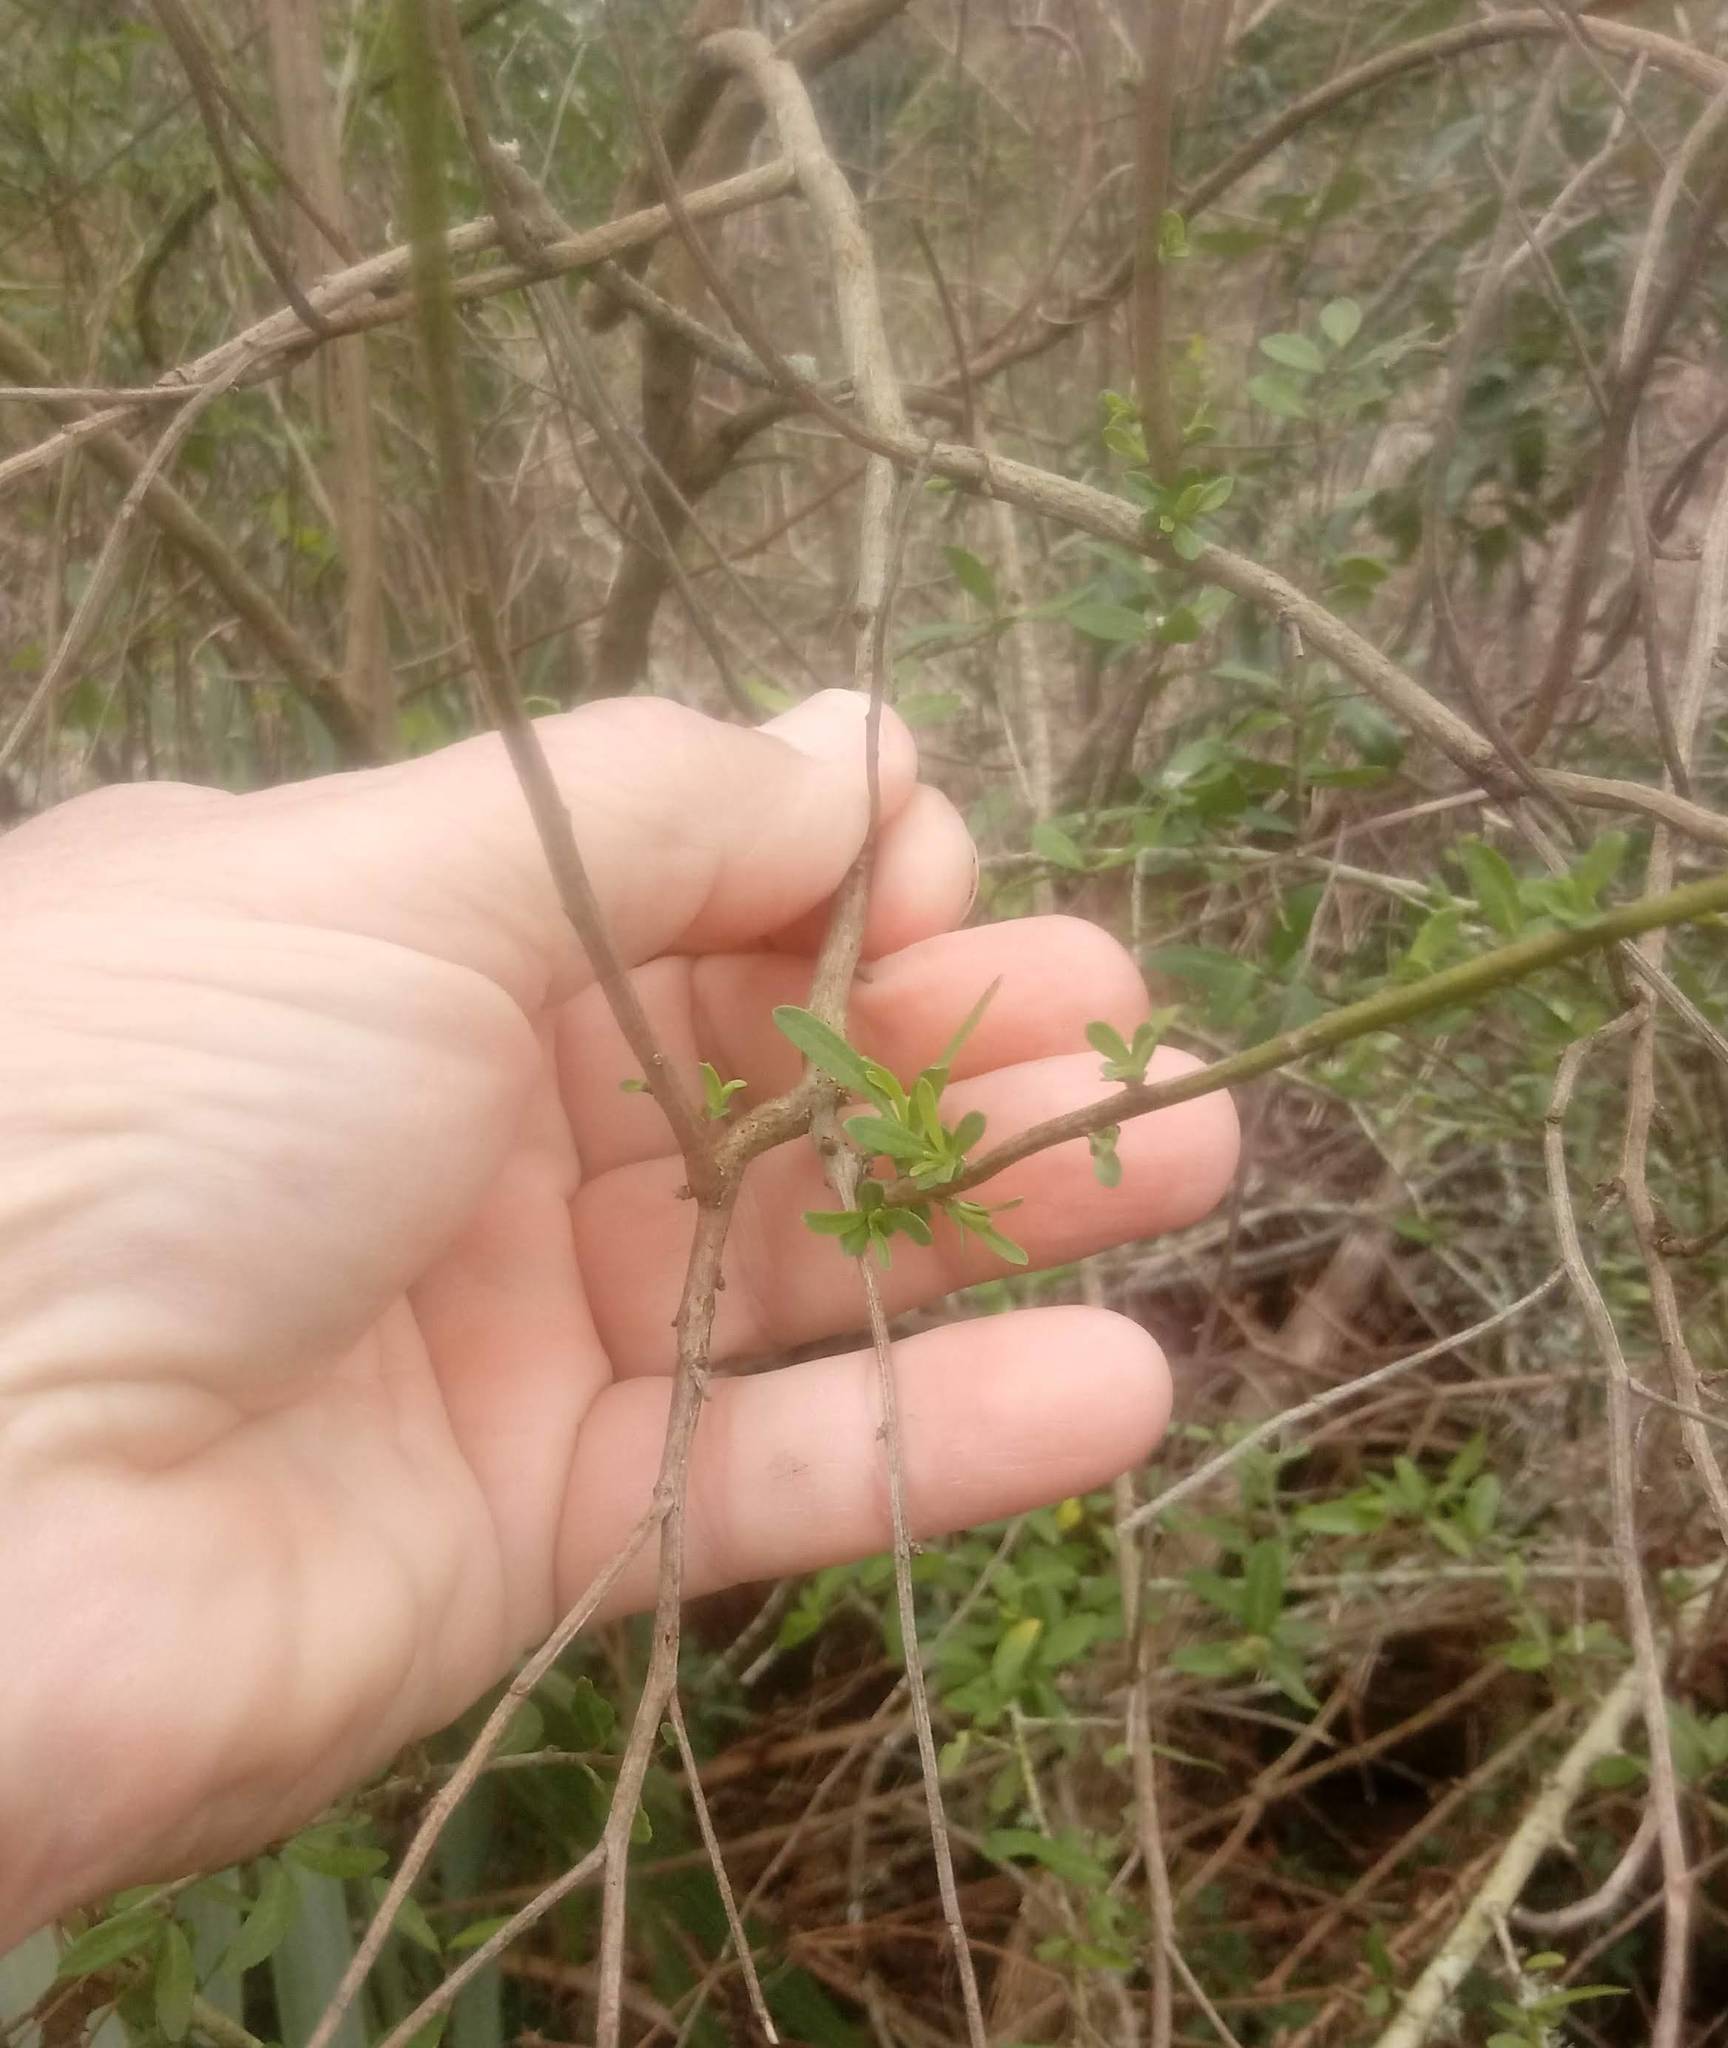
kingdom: Plantae
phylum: Tracheophyta
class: Magnoliopsida
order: Asterales
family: Asteraceae
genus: Baccharis
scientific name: Baccharis halimifolia
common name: Eastern baccharis
